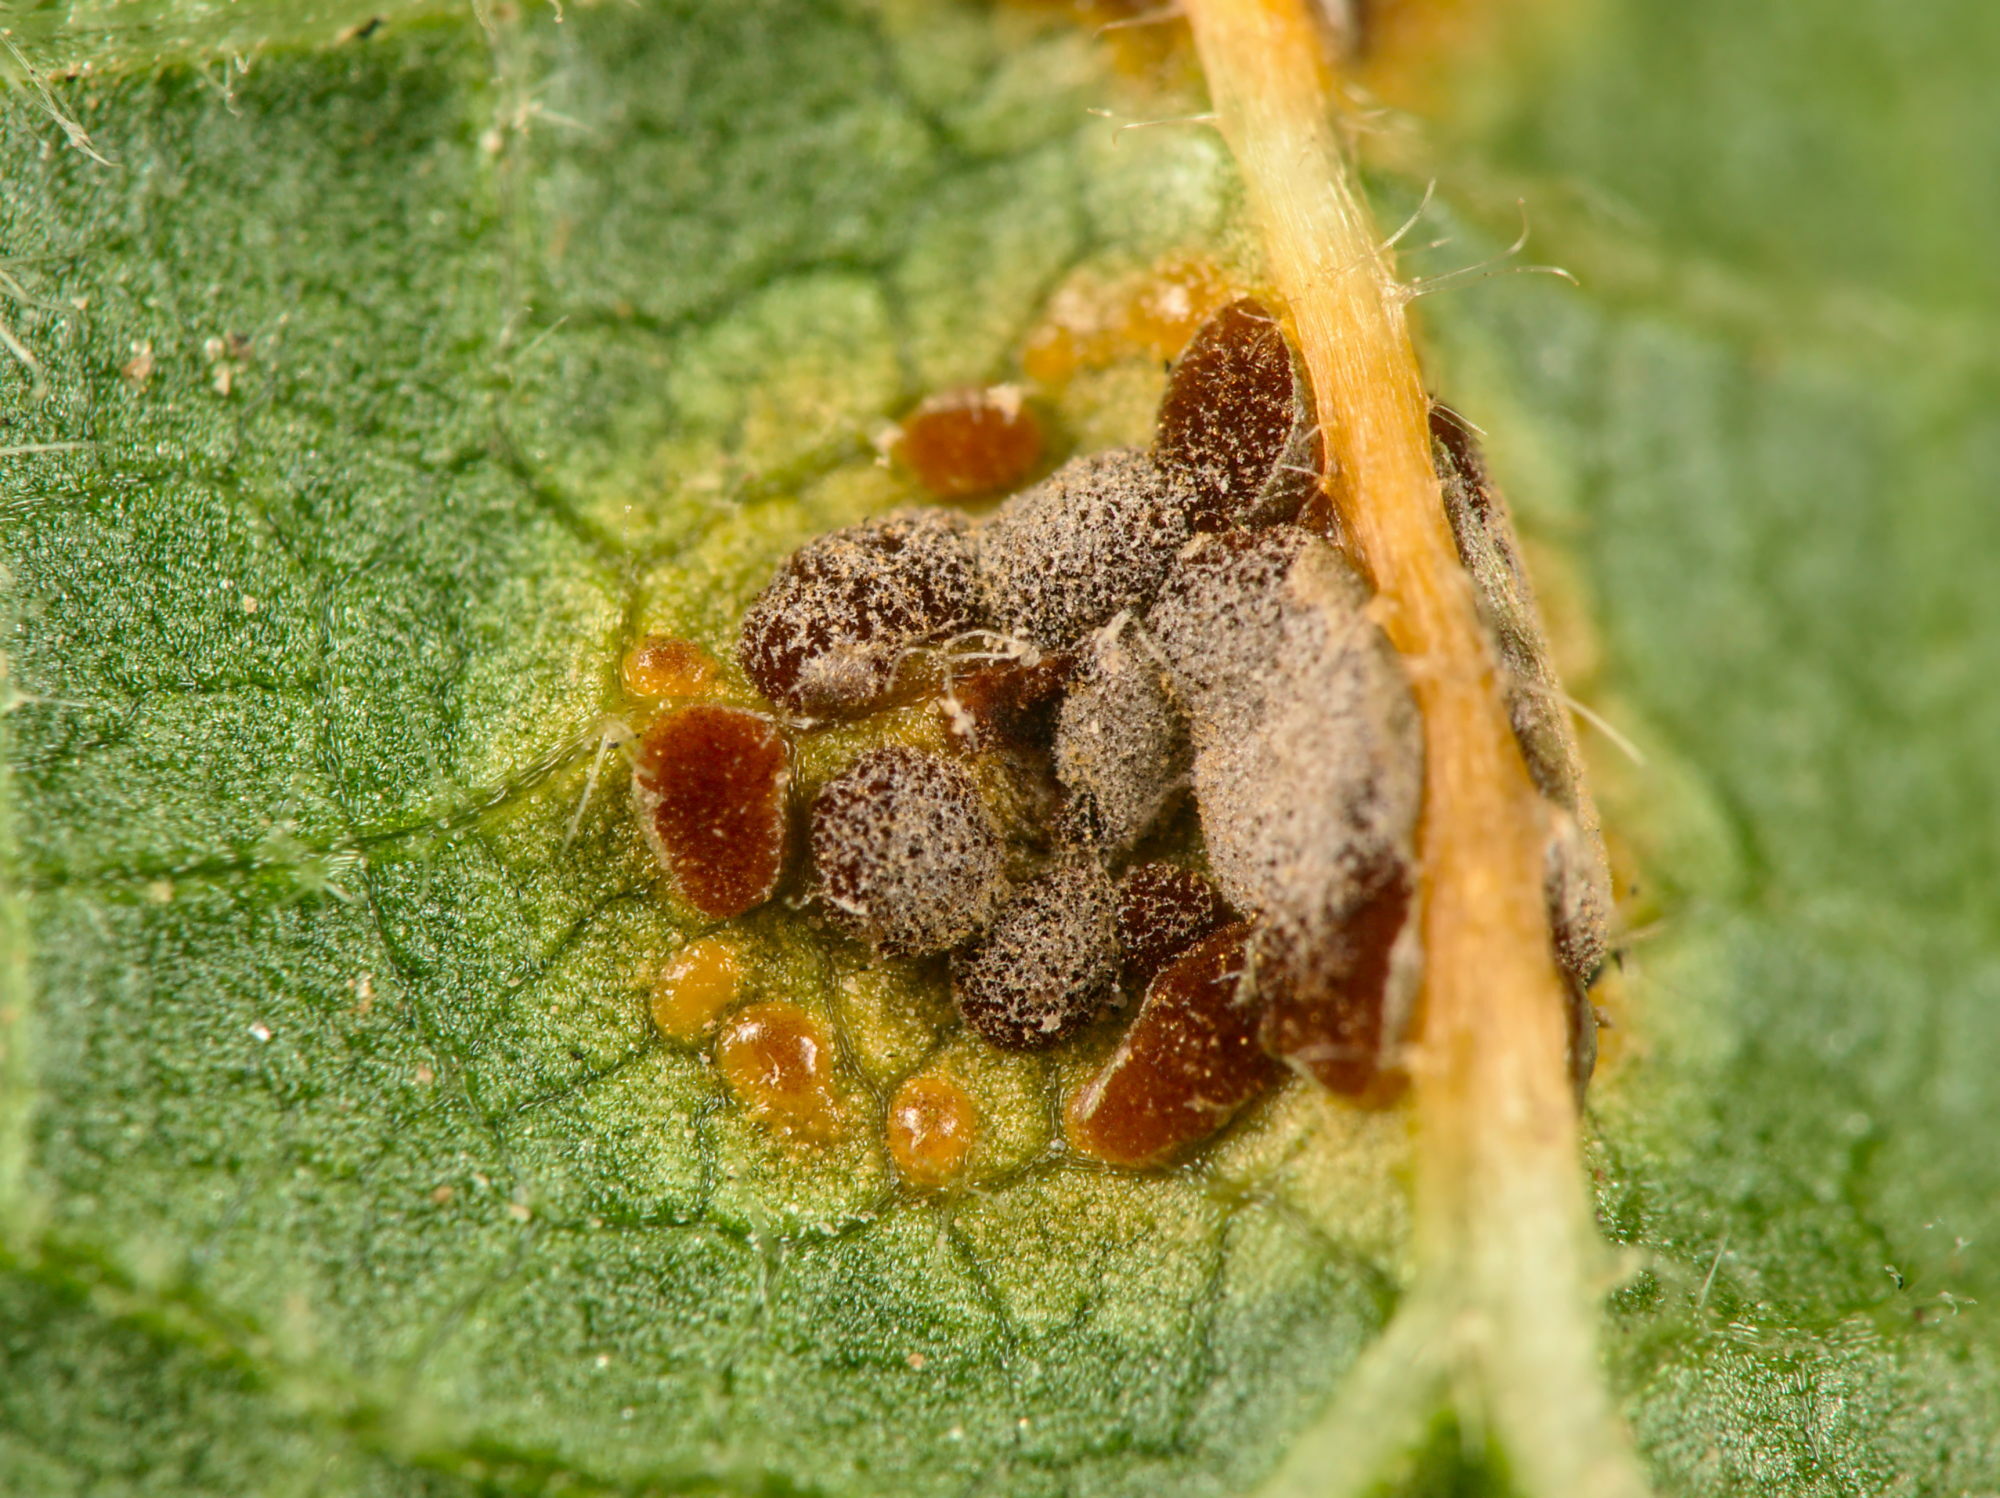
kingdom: Fungi
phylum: Basidiomycota
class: Pucciniomycetes
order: Pucciniales
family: Pucciniaceae
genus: Puccinia
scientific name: Puccinia malvacearum
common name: Hollyhock rust
